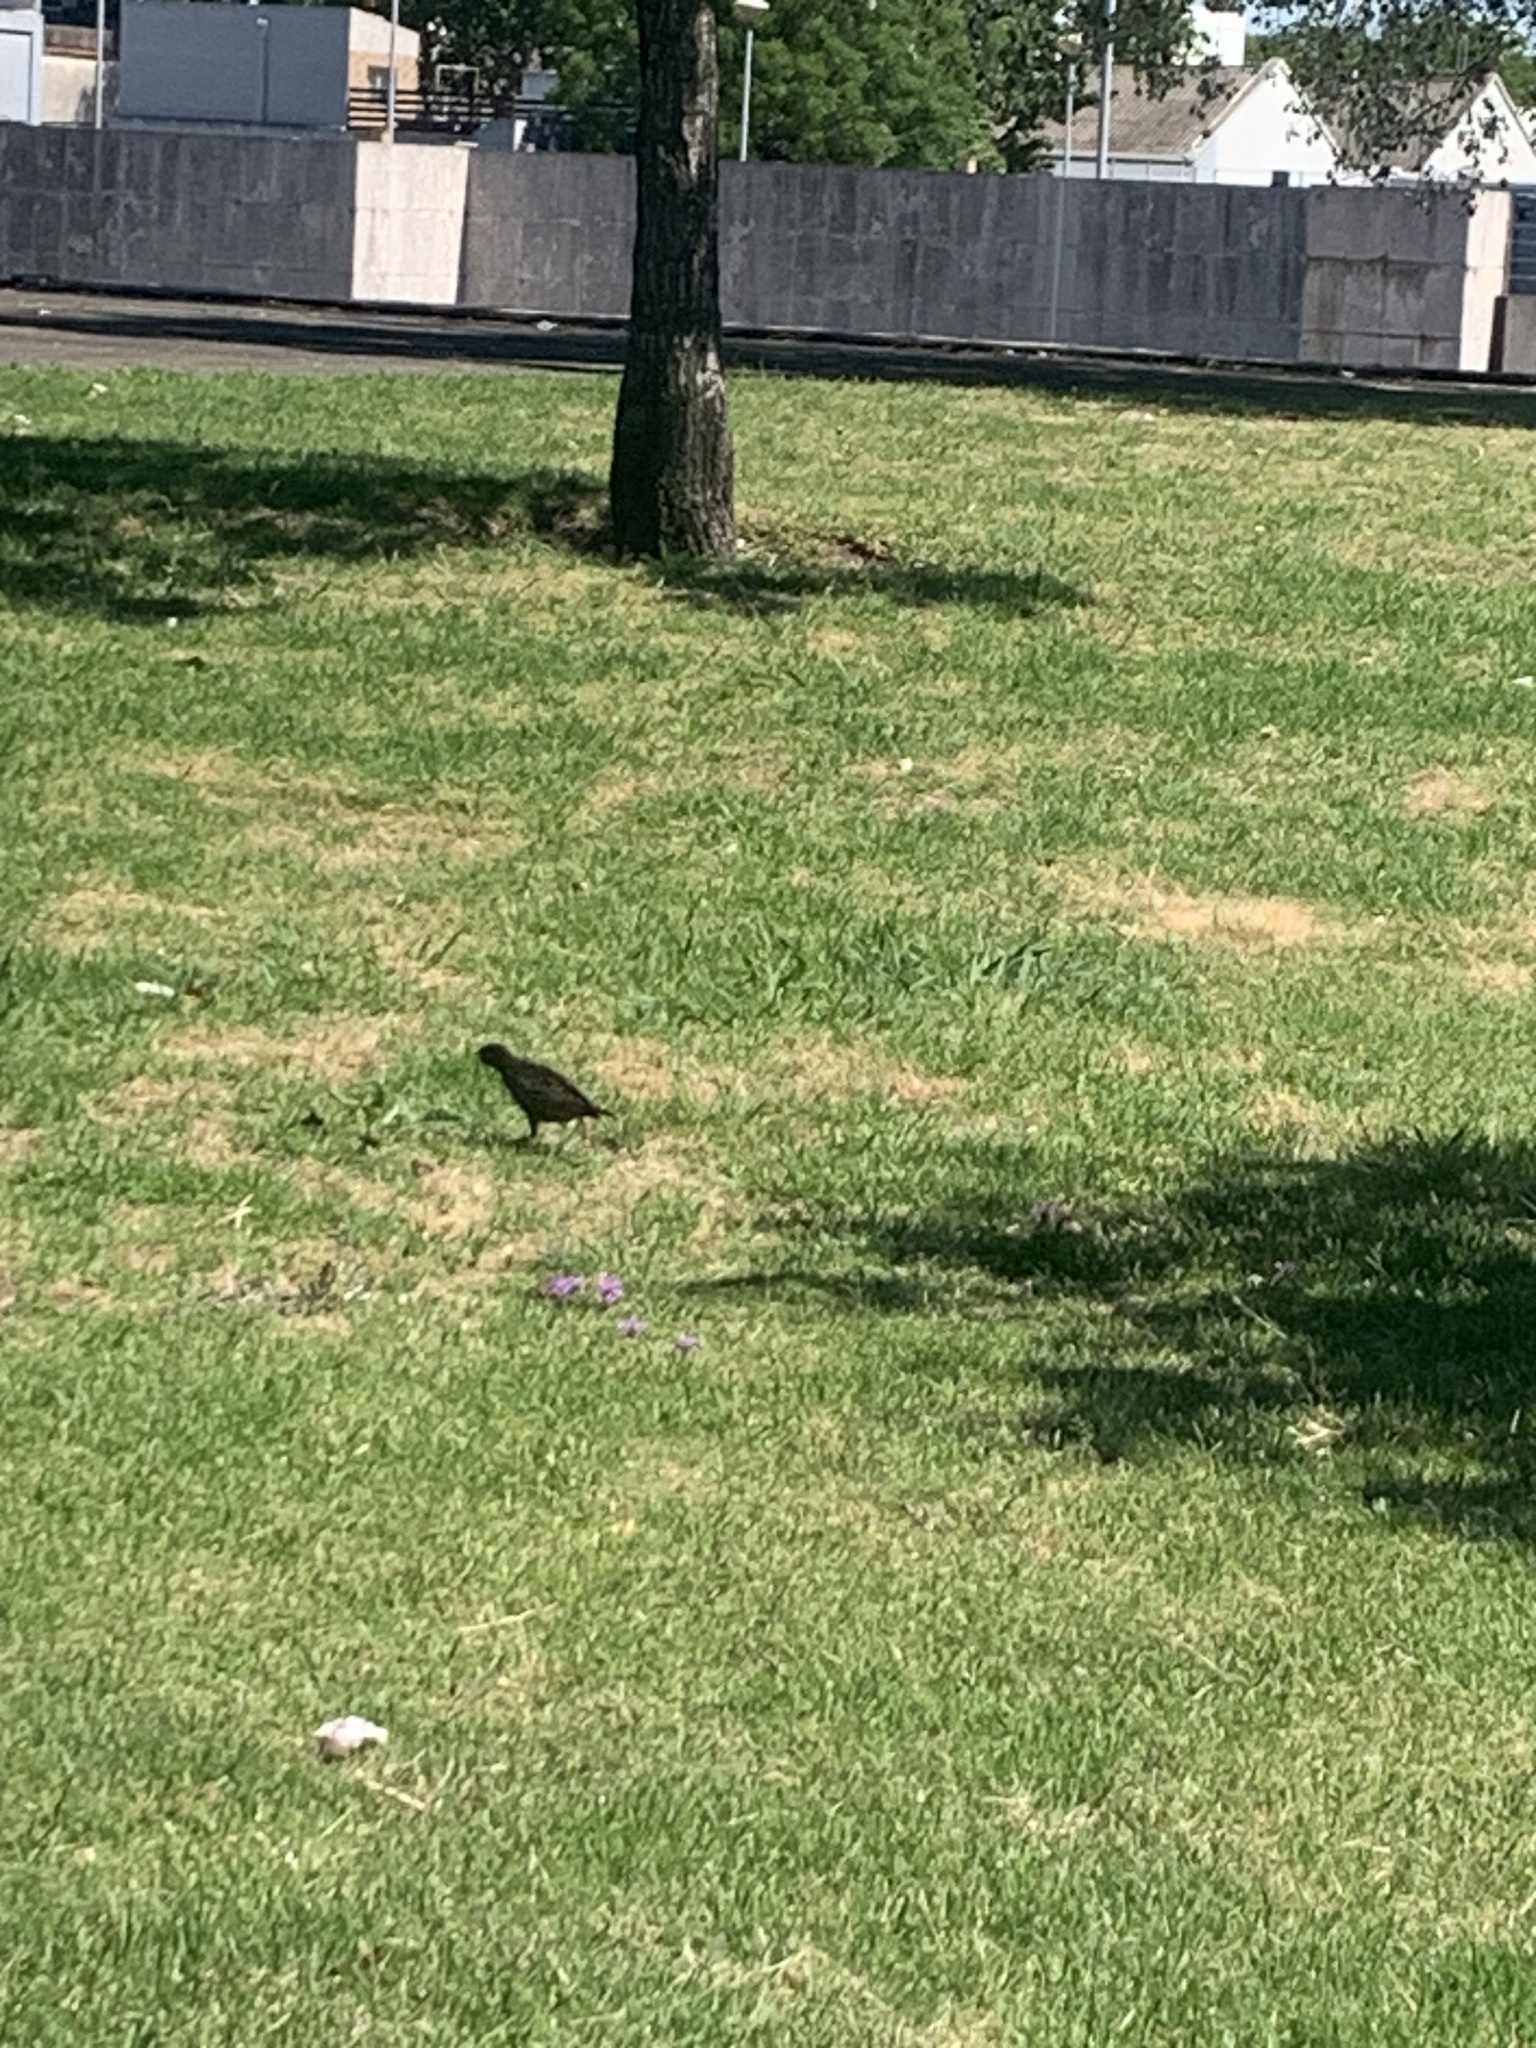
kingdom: Animalia
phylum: Chordata
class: Aves
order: Passeriformes
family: Sturnidae
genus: Sturnus
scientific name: Sturnus vulgaris
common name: Common starling
